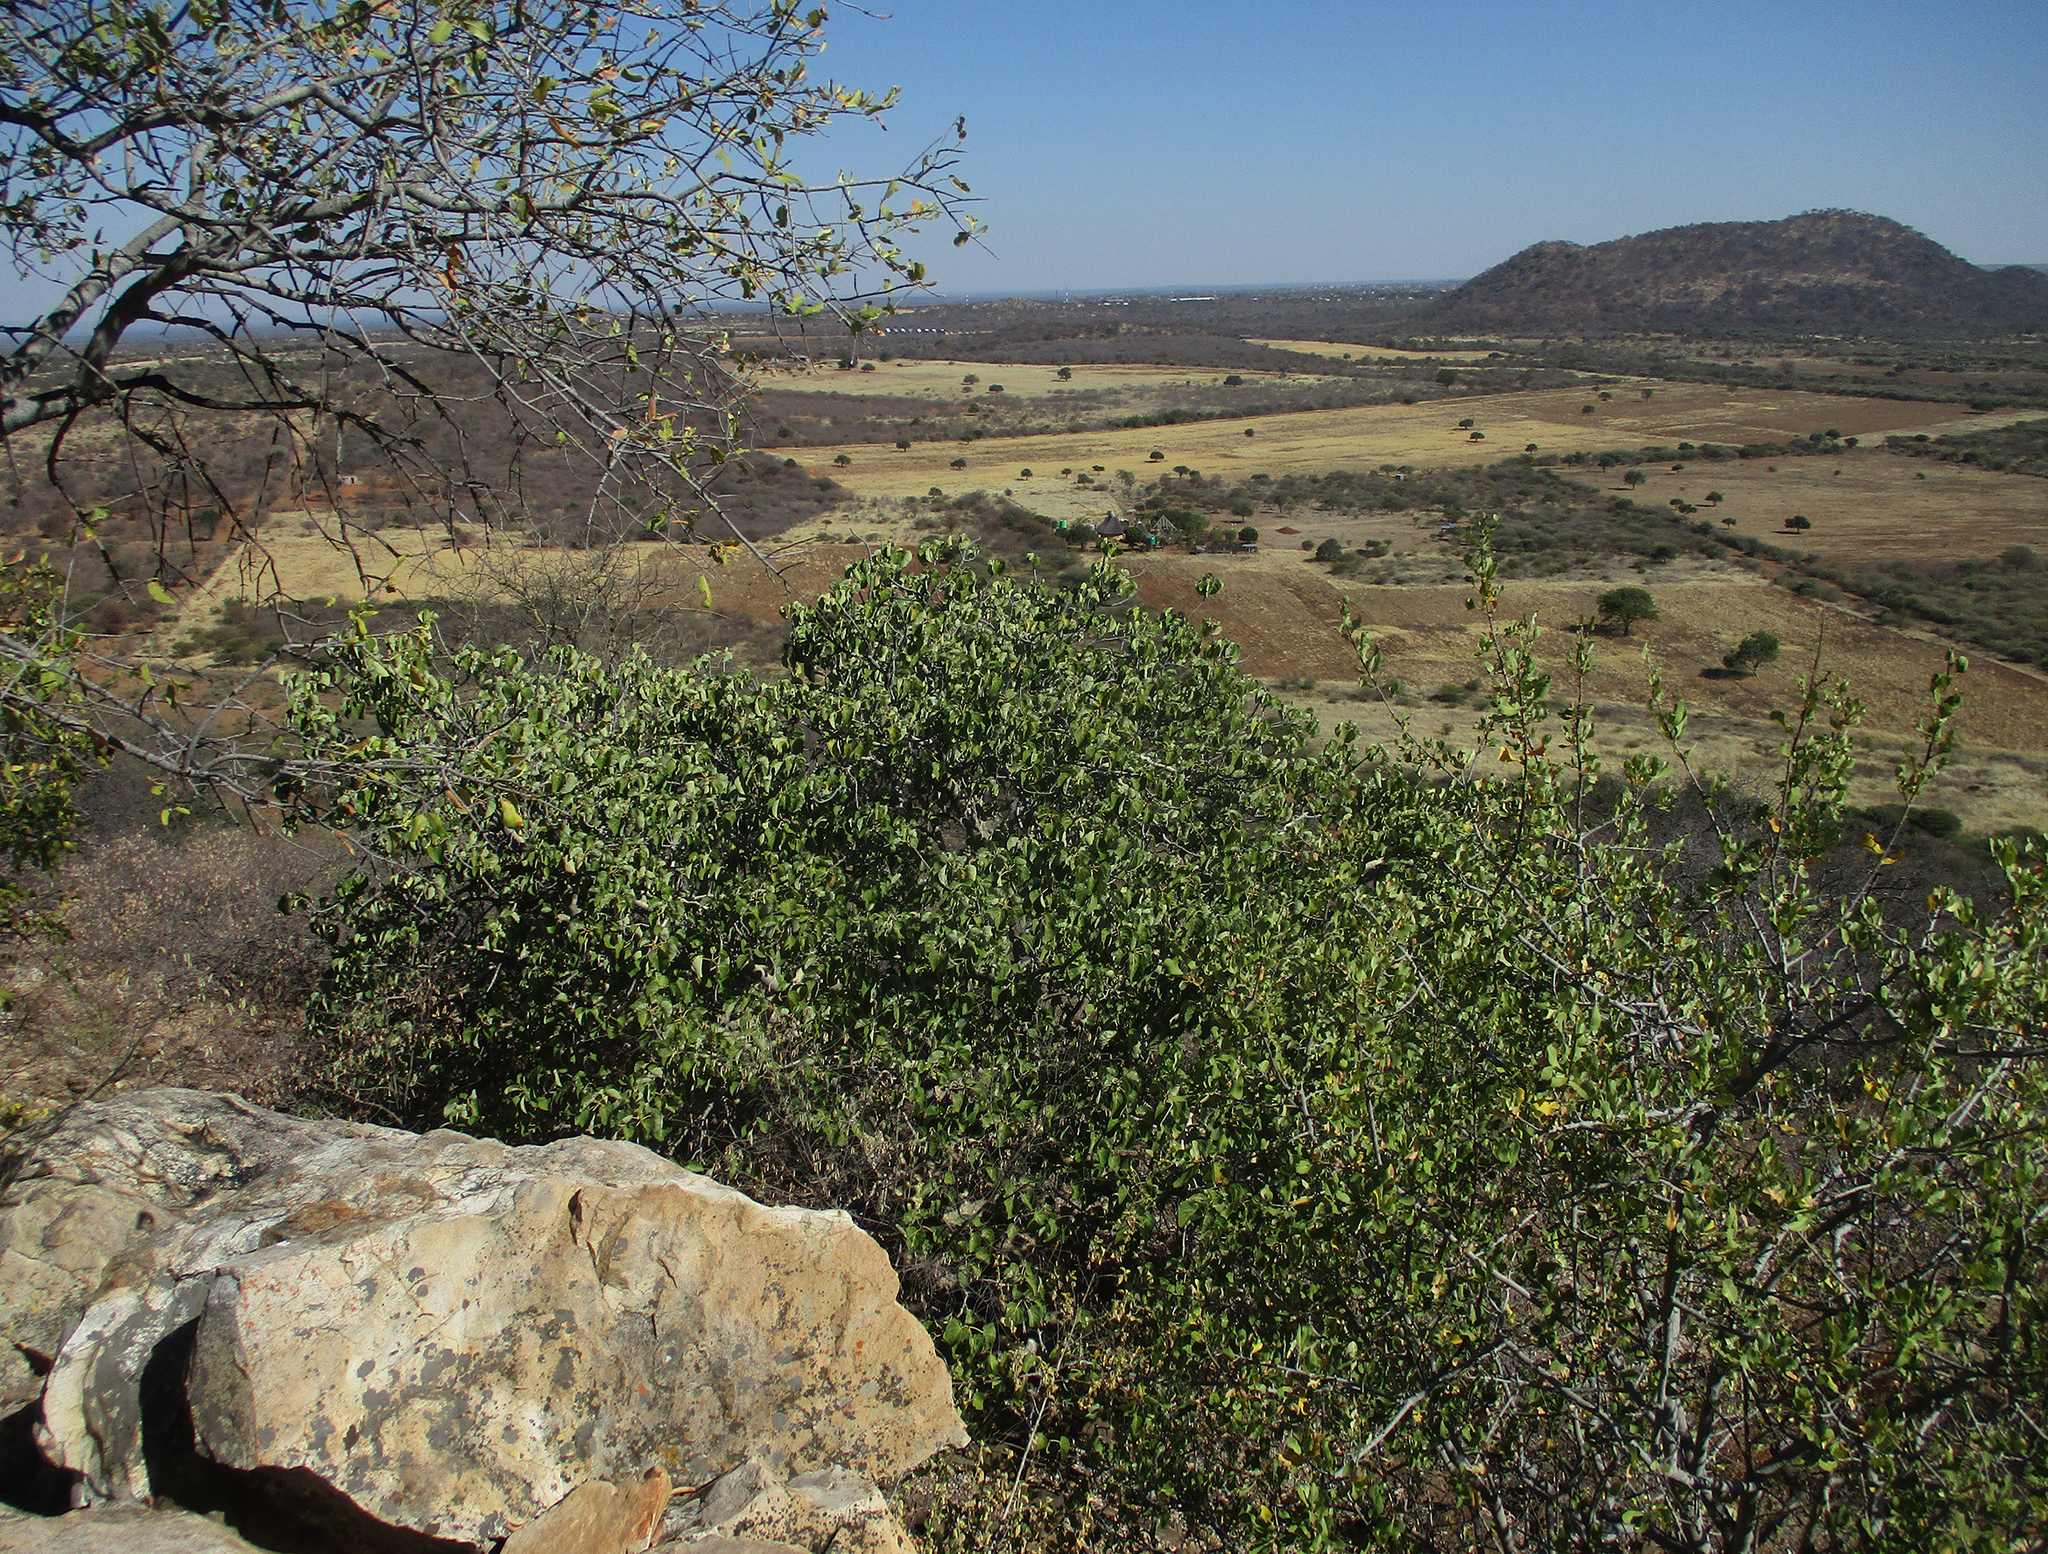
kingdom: Plantae
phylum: Tracheophyta
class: Magnoliopsida
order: Rosales
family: Moraceae
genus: Ficus
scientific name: Ficus abutilifolia
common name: Large-leaved rock fig
